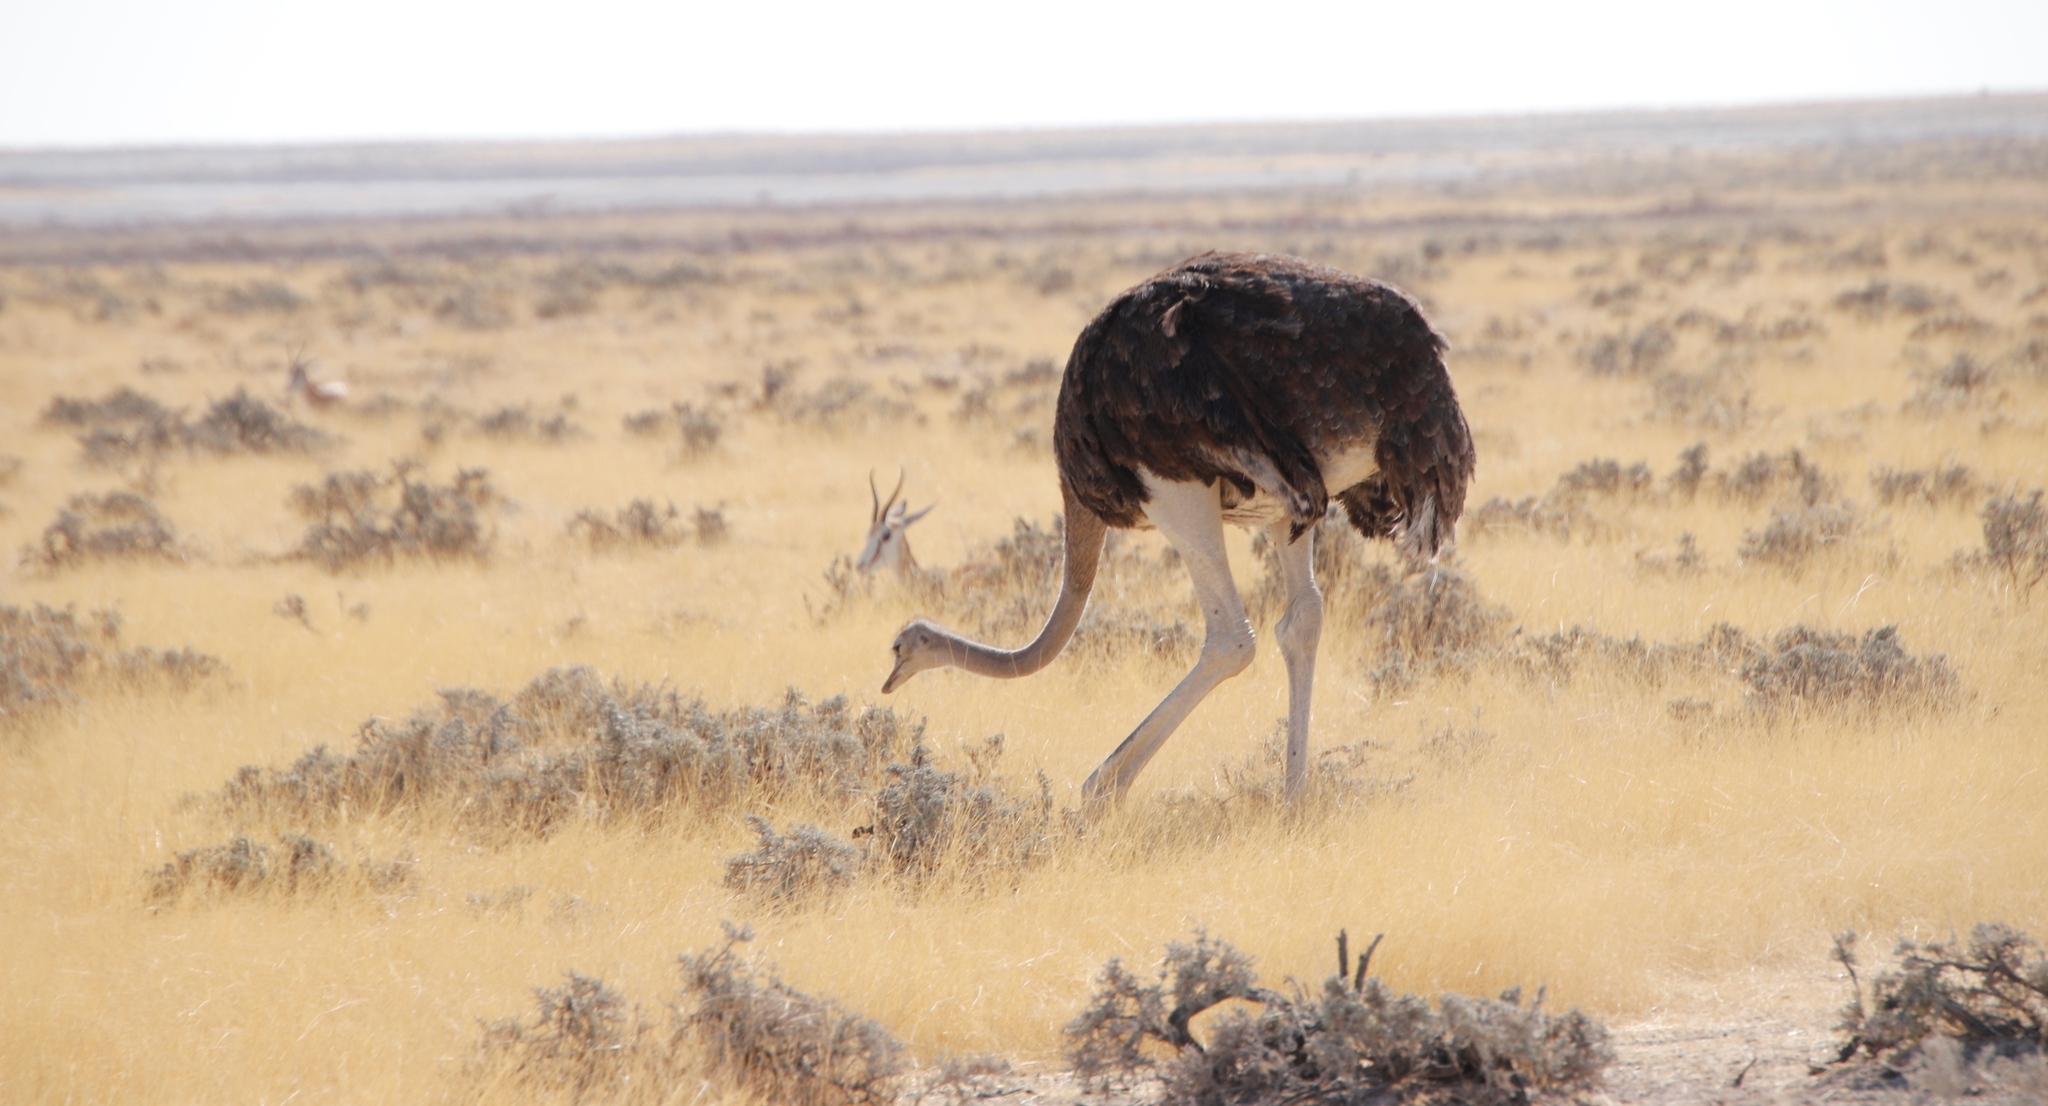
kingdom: Animalia
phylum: Chordata
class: Aves
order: Struthioniformes
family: Struthionidae
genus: Struthio
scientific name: Struthio camelus
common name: Common ostrich
